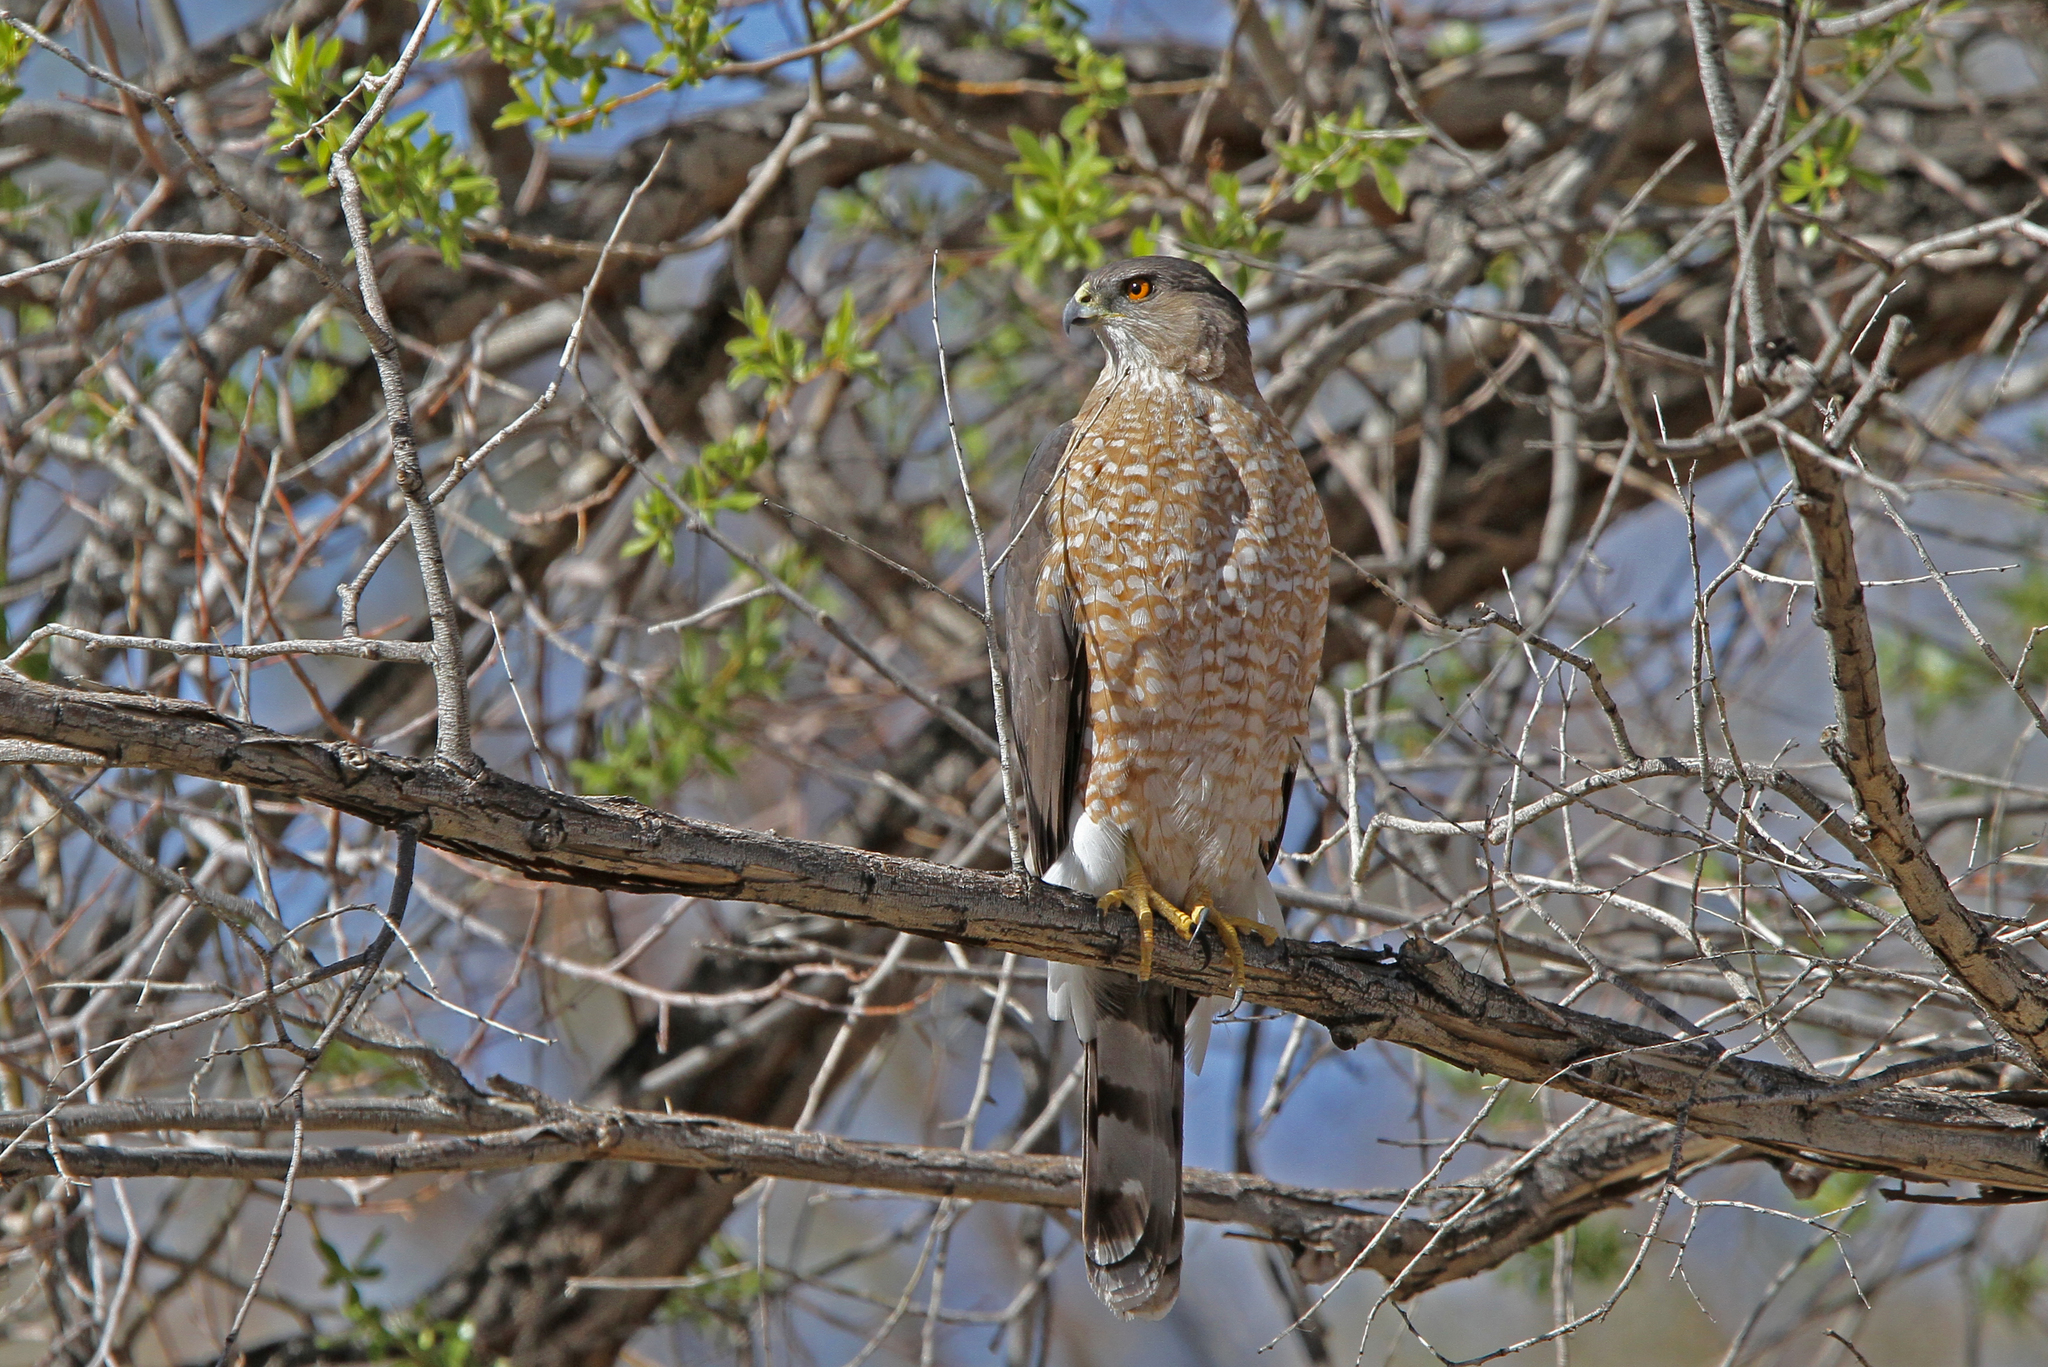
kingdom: Animalia
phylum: Chordata
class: Aves
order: Accipitriformes
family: Accipitridae
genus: Accipiter
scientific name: Accipiter cooperii
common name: Cooper's hawk
